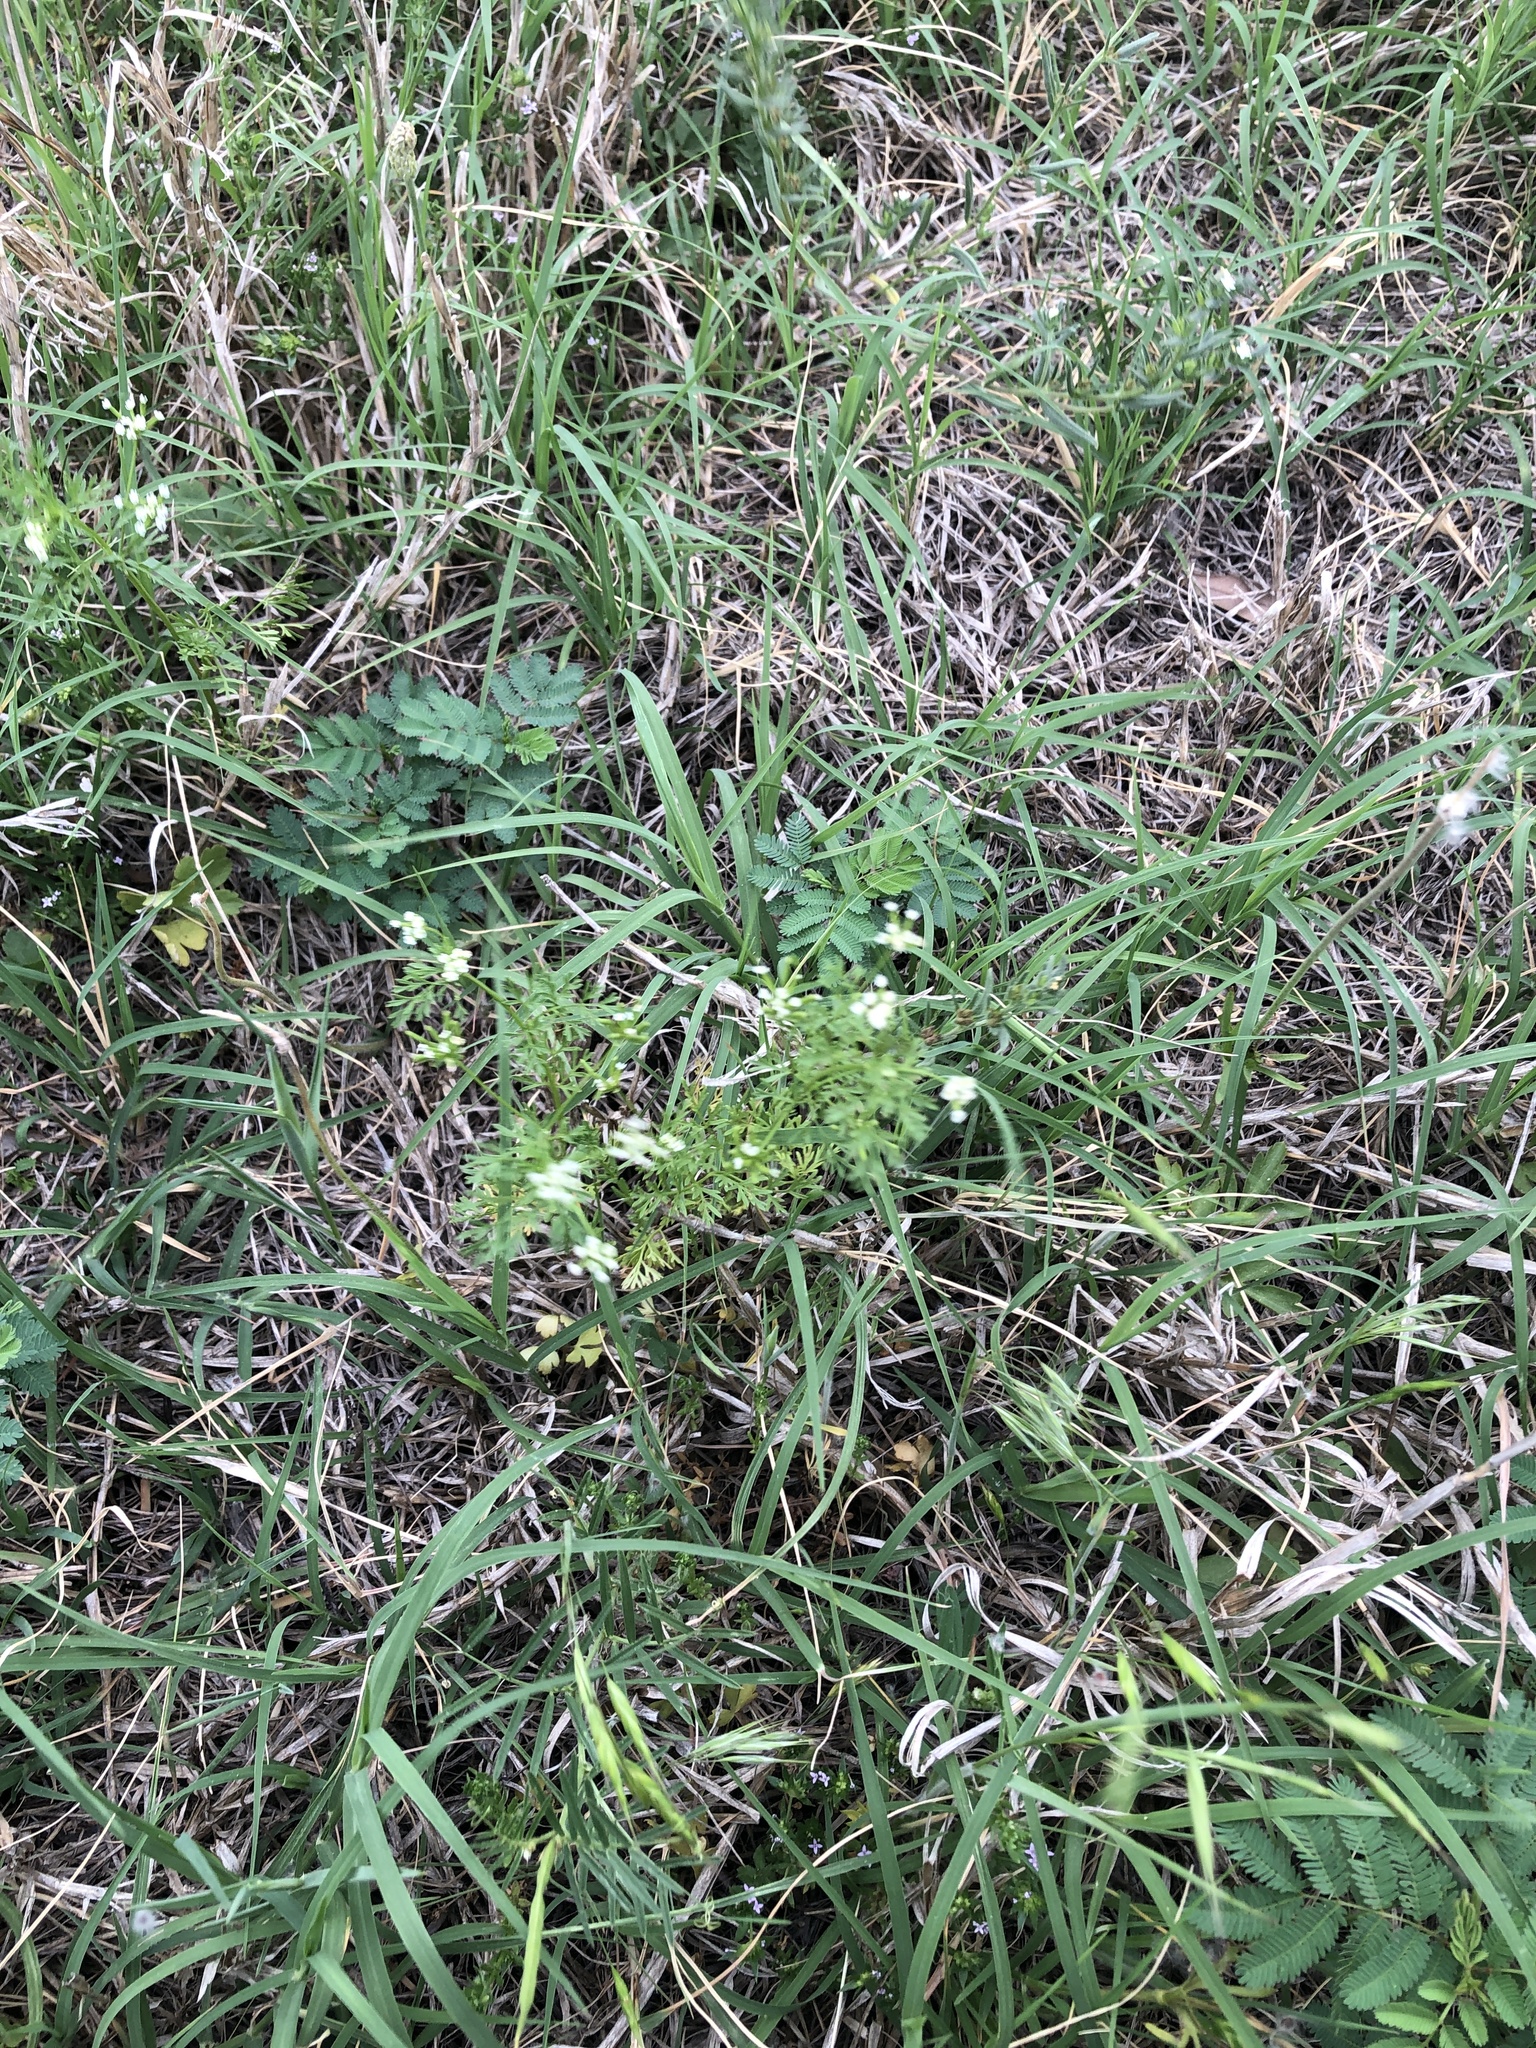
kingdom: Plantae
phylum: Tracheophyta
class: Magnoliopsida
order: Apiales
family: Apiaceae
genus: Chaerophyllum
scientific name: Chaerophyllum tainturieri
